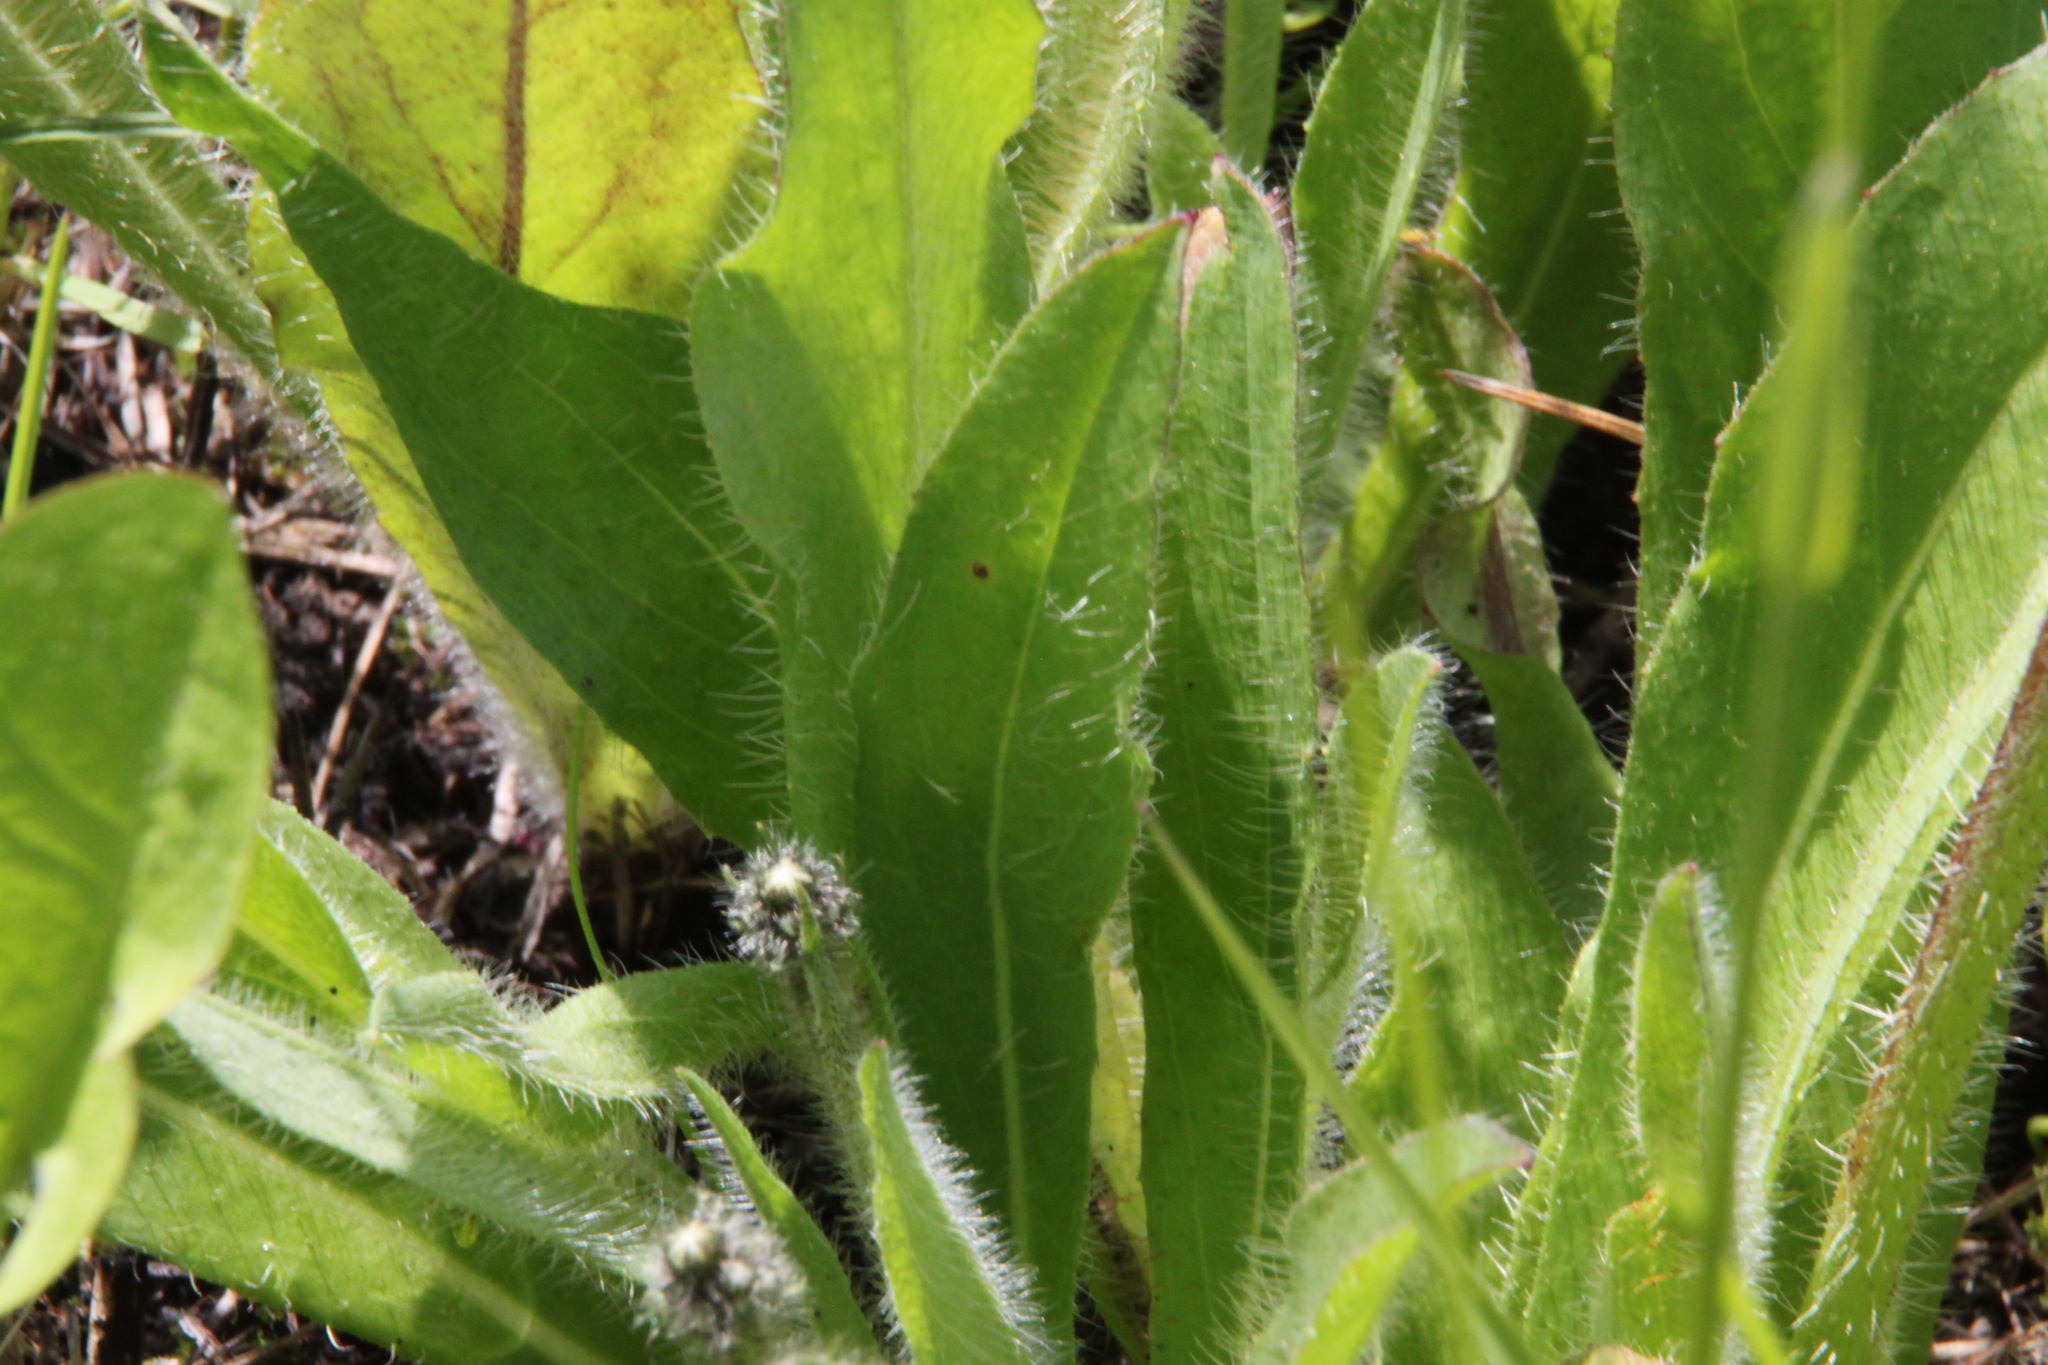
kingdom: Plantae
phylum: Tracheophyta
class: Magnoliopsida
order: Asterales
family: Asteraceae
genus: Pilosella
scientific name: Pilosella
